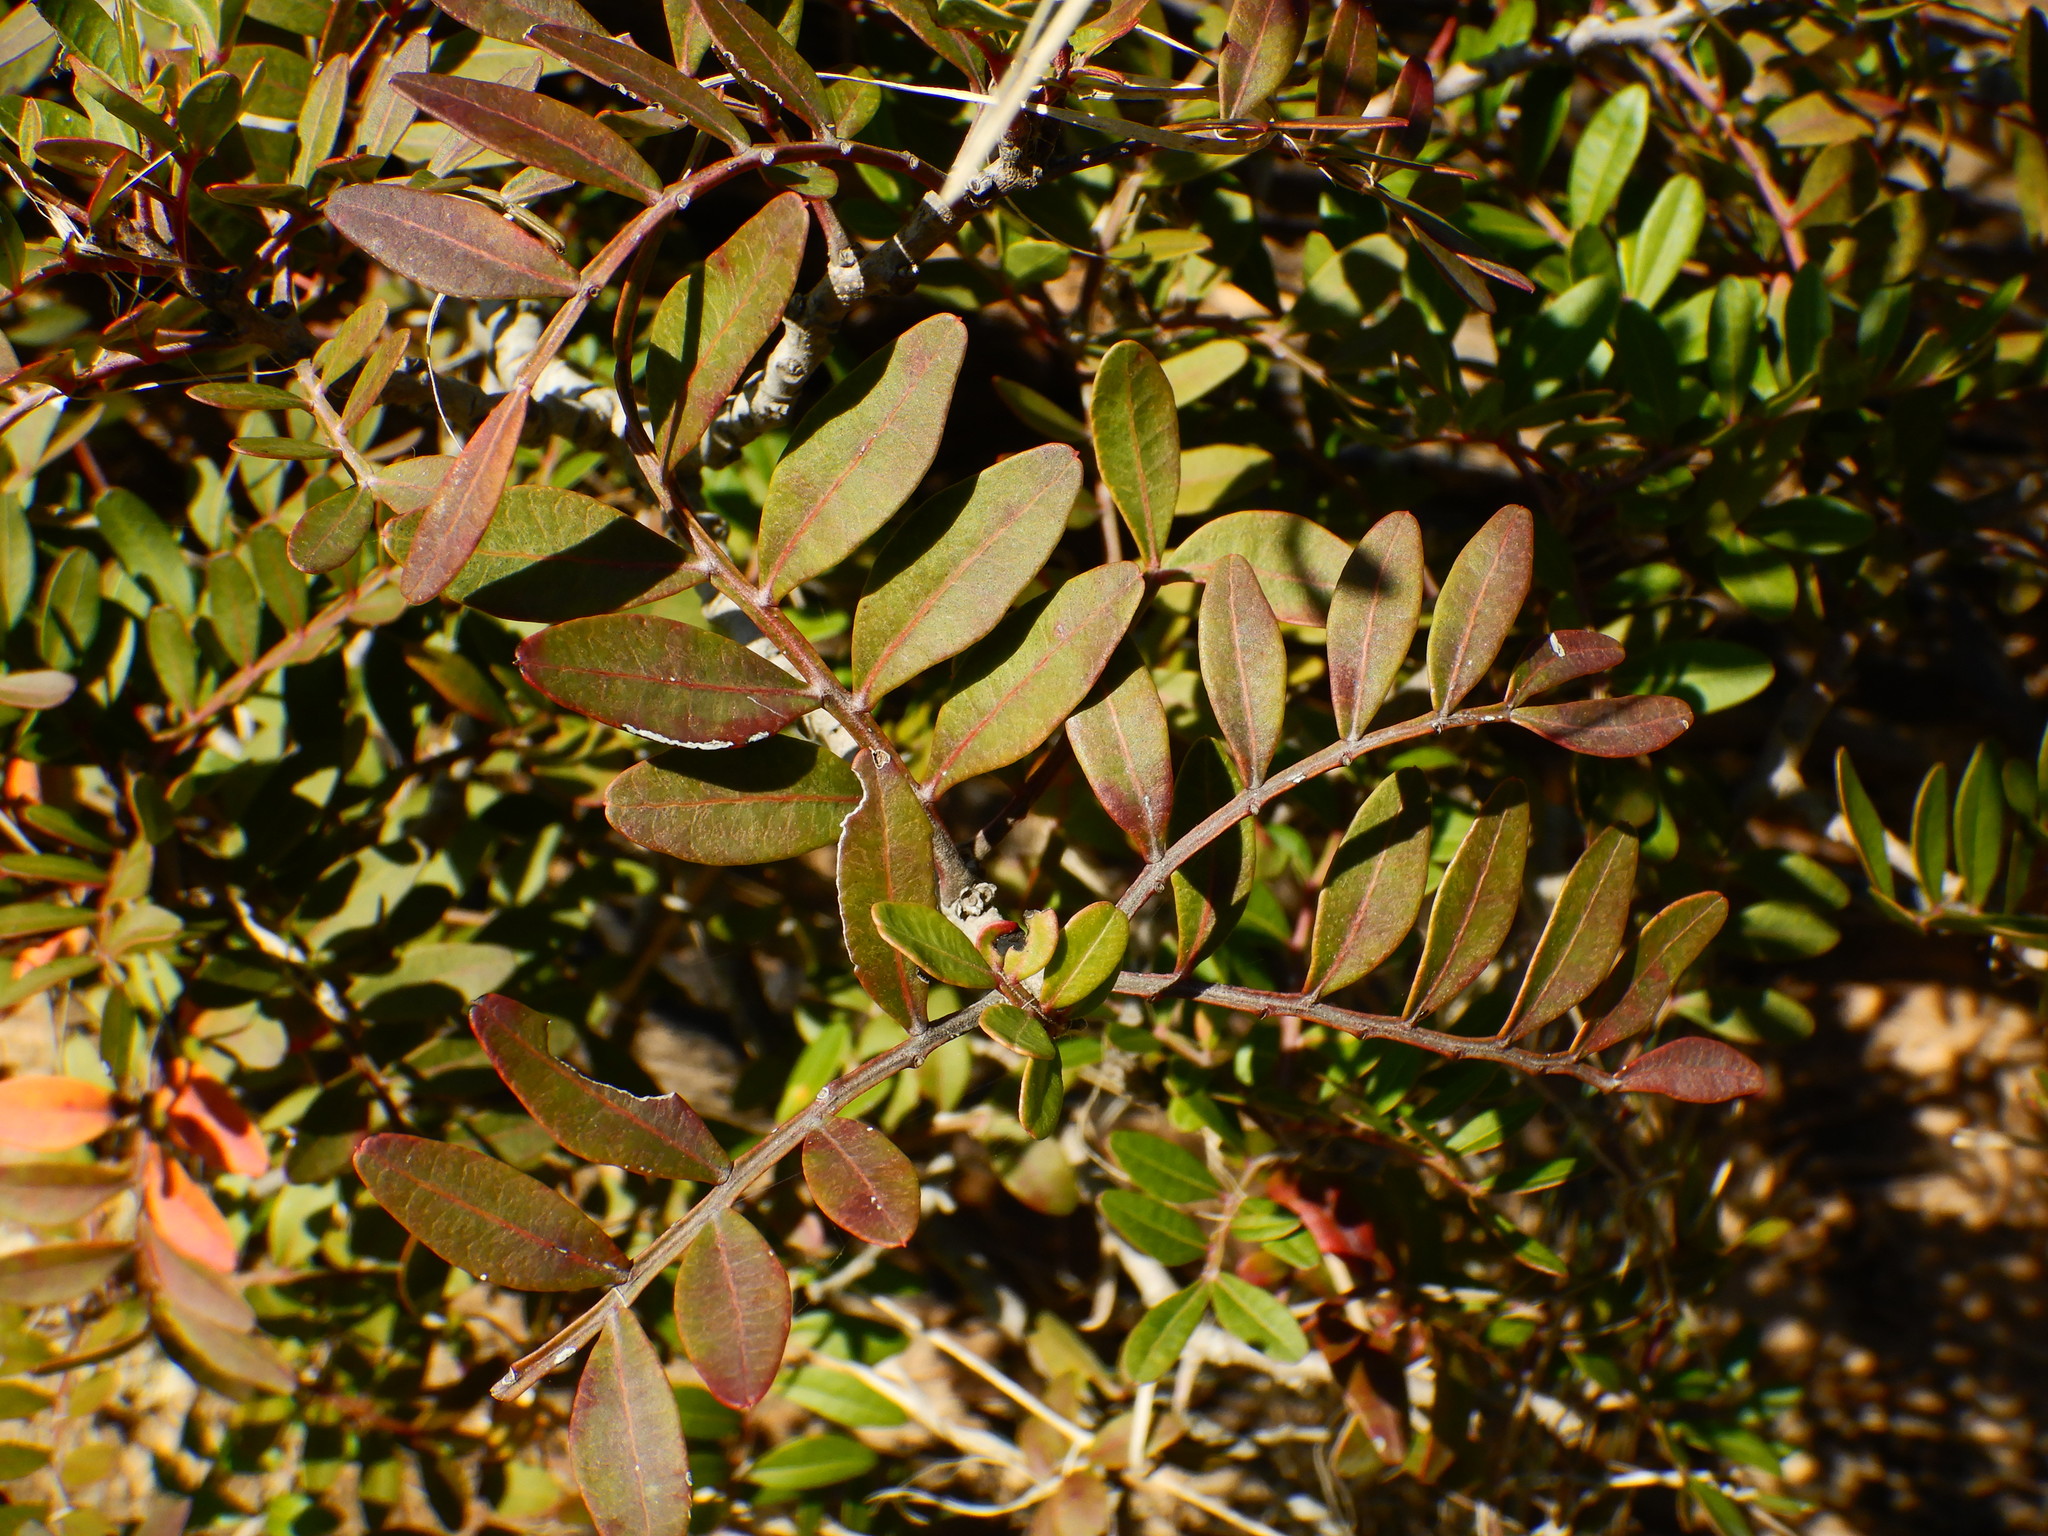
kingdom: Plantae
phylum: Tracheophyta
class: Magnoliopsida
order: Sapindales
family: Anacardiaceae
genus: Pistacia
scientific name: Pistacia lentiscus
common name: Lentisk
